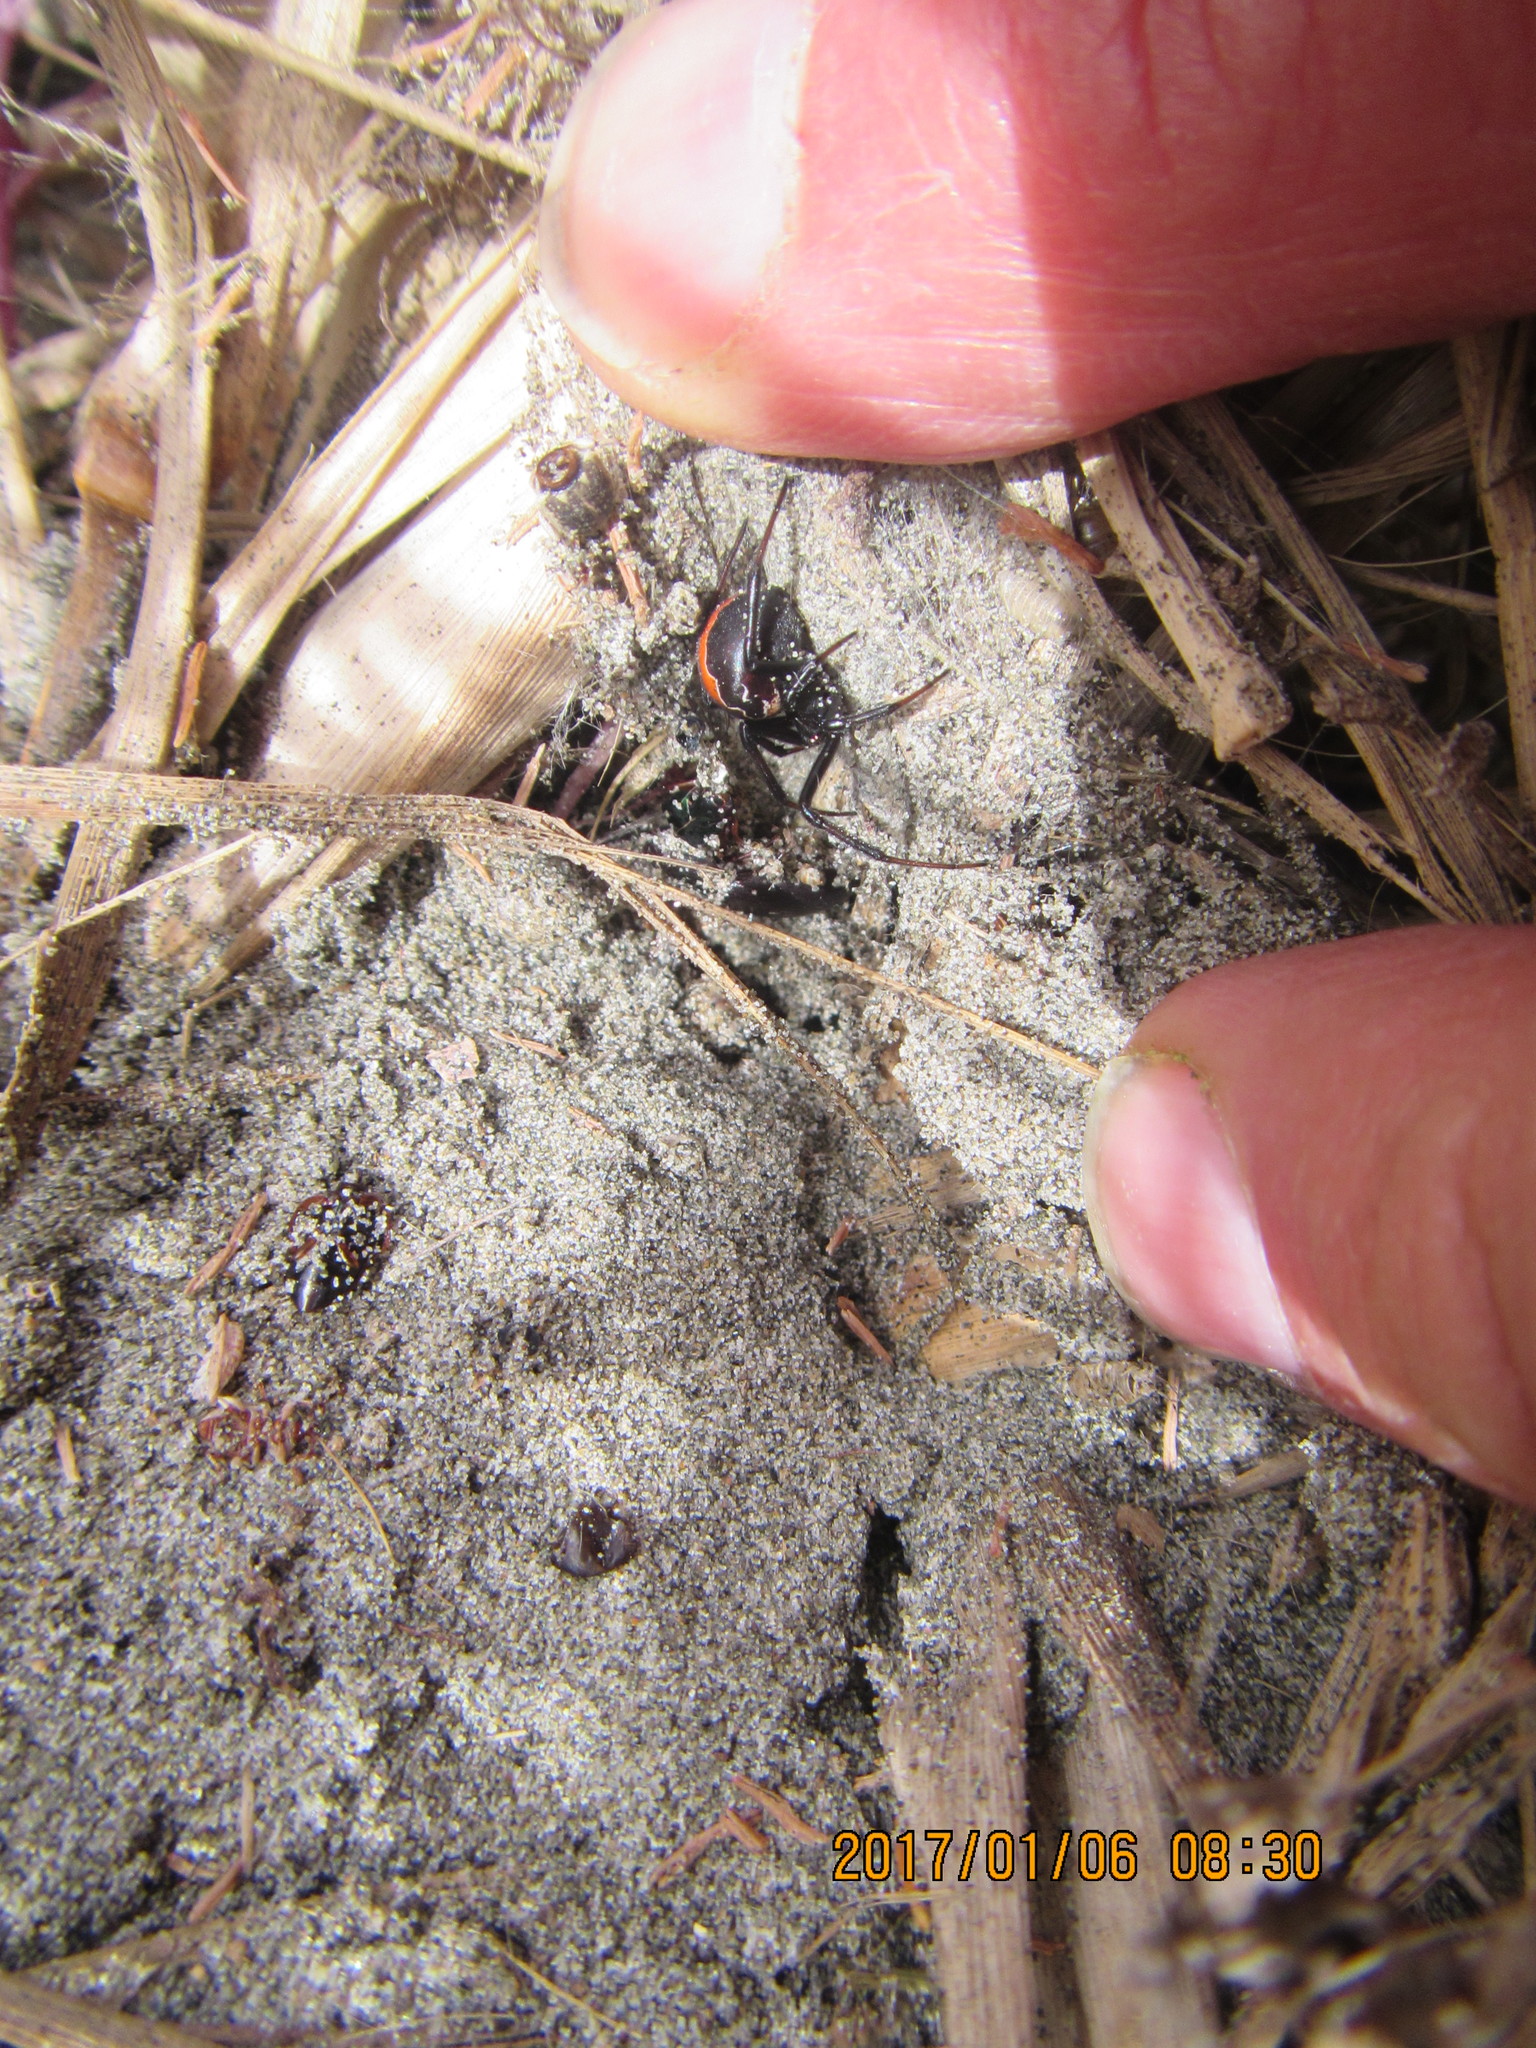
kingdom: Animalia
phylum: Arthropoda
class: Arachnida
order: Araneae
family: Theridiidae
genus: Latrodectus
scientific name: Latrodectus katipo
